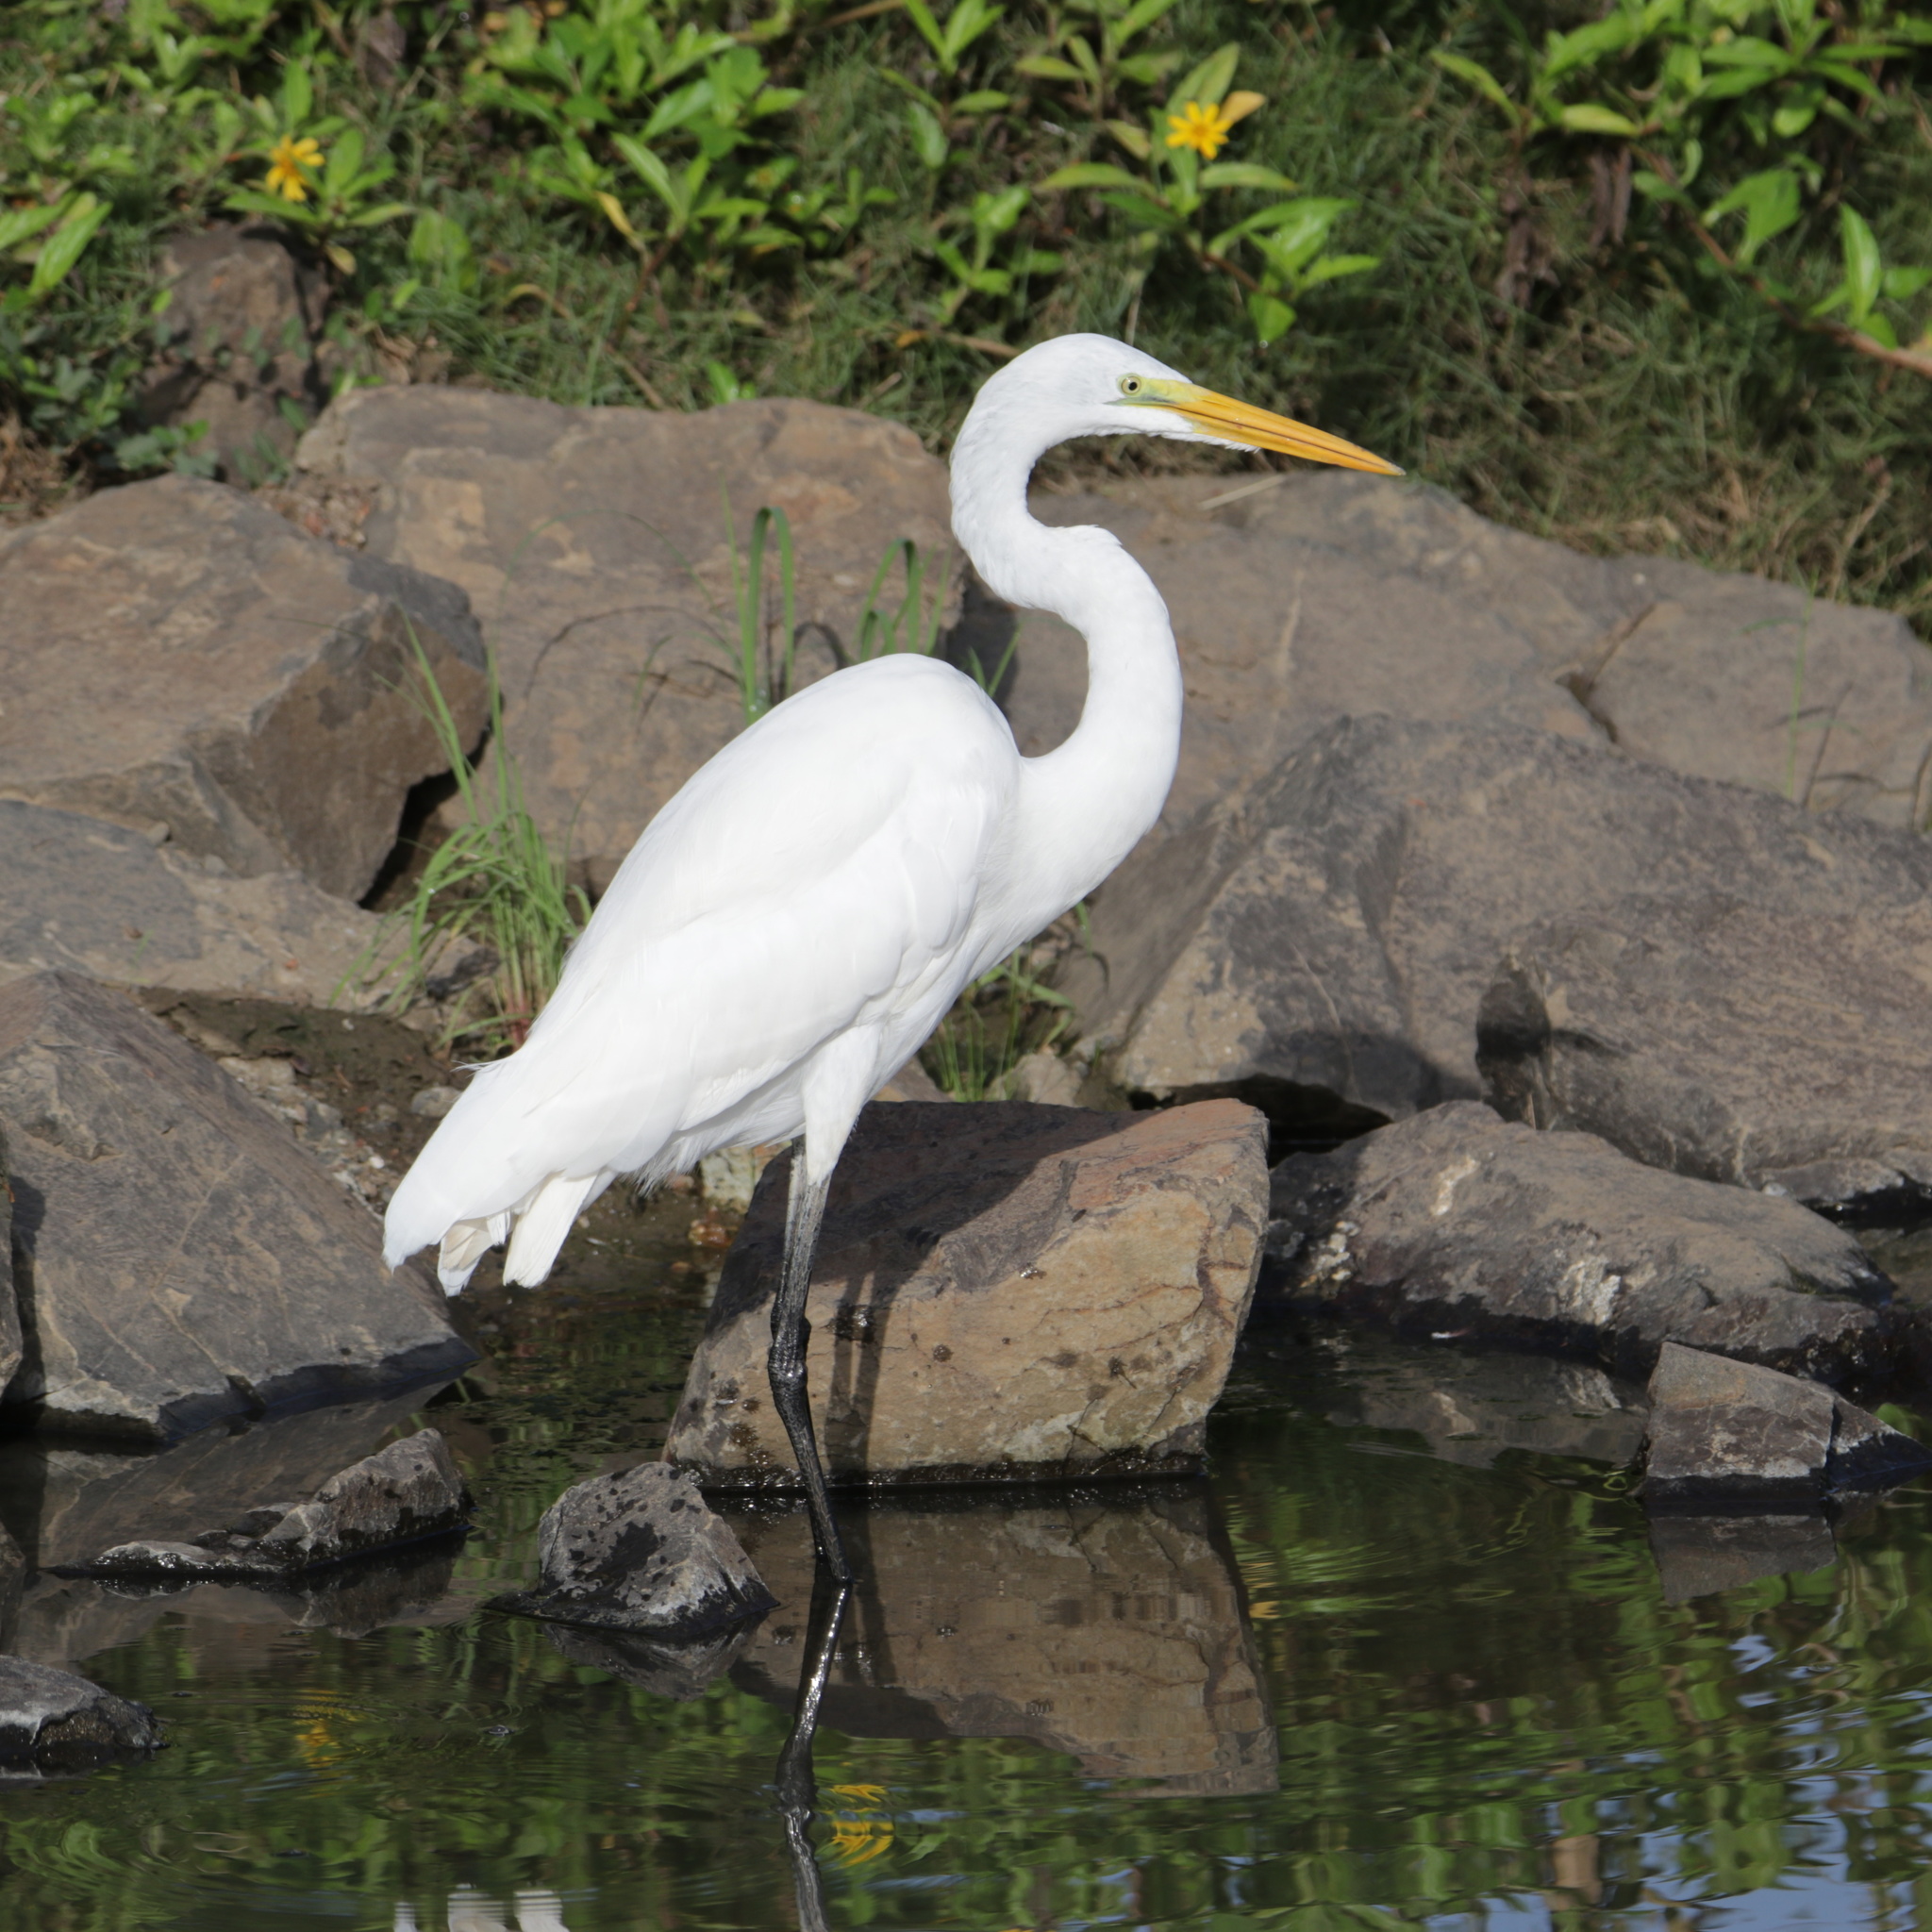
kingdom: Animalia
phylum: Chordata
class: Aves
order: Pelecaniformes
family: Ardeidae
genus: Ardea
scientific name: Ardea alba
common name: Great egret
